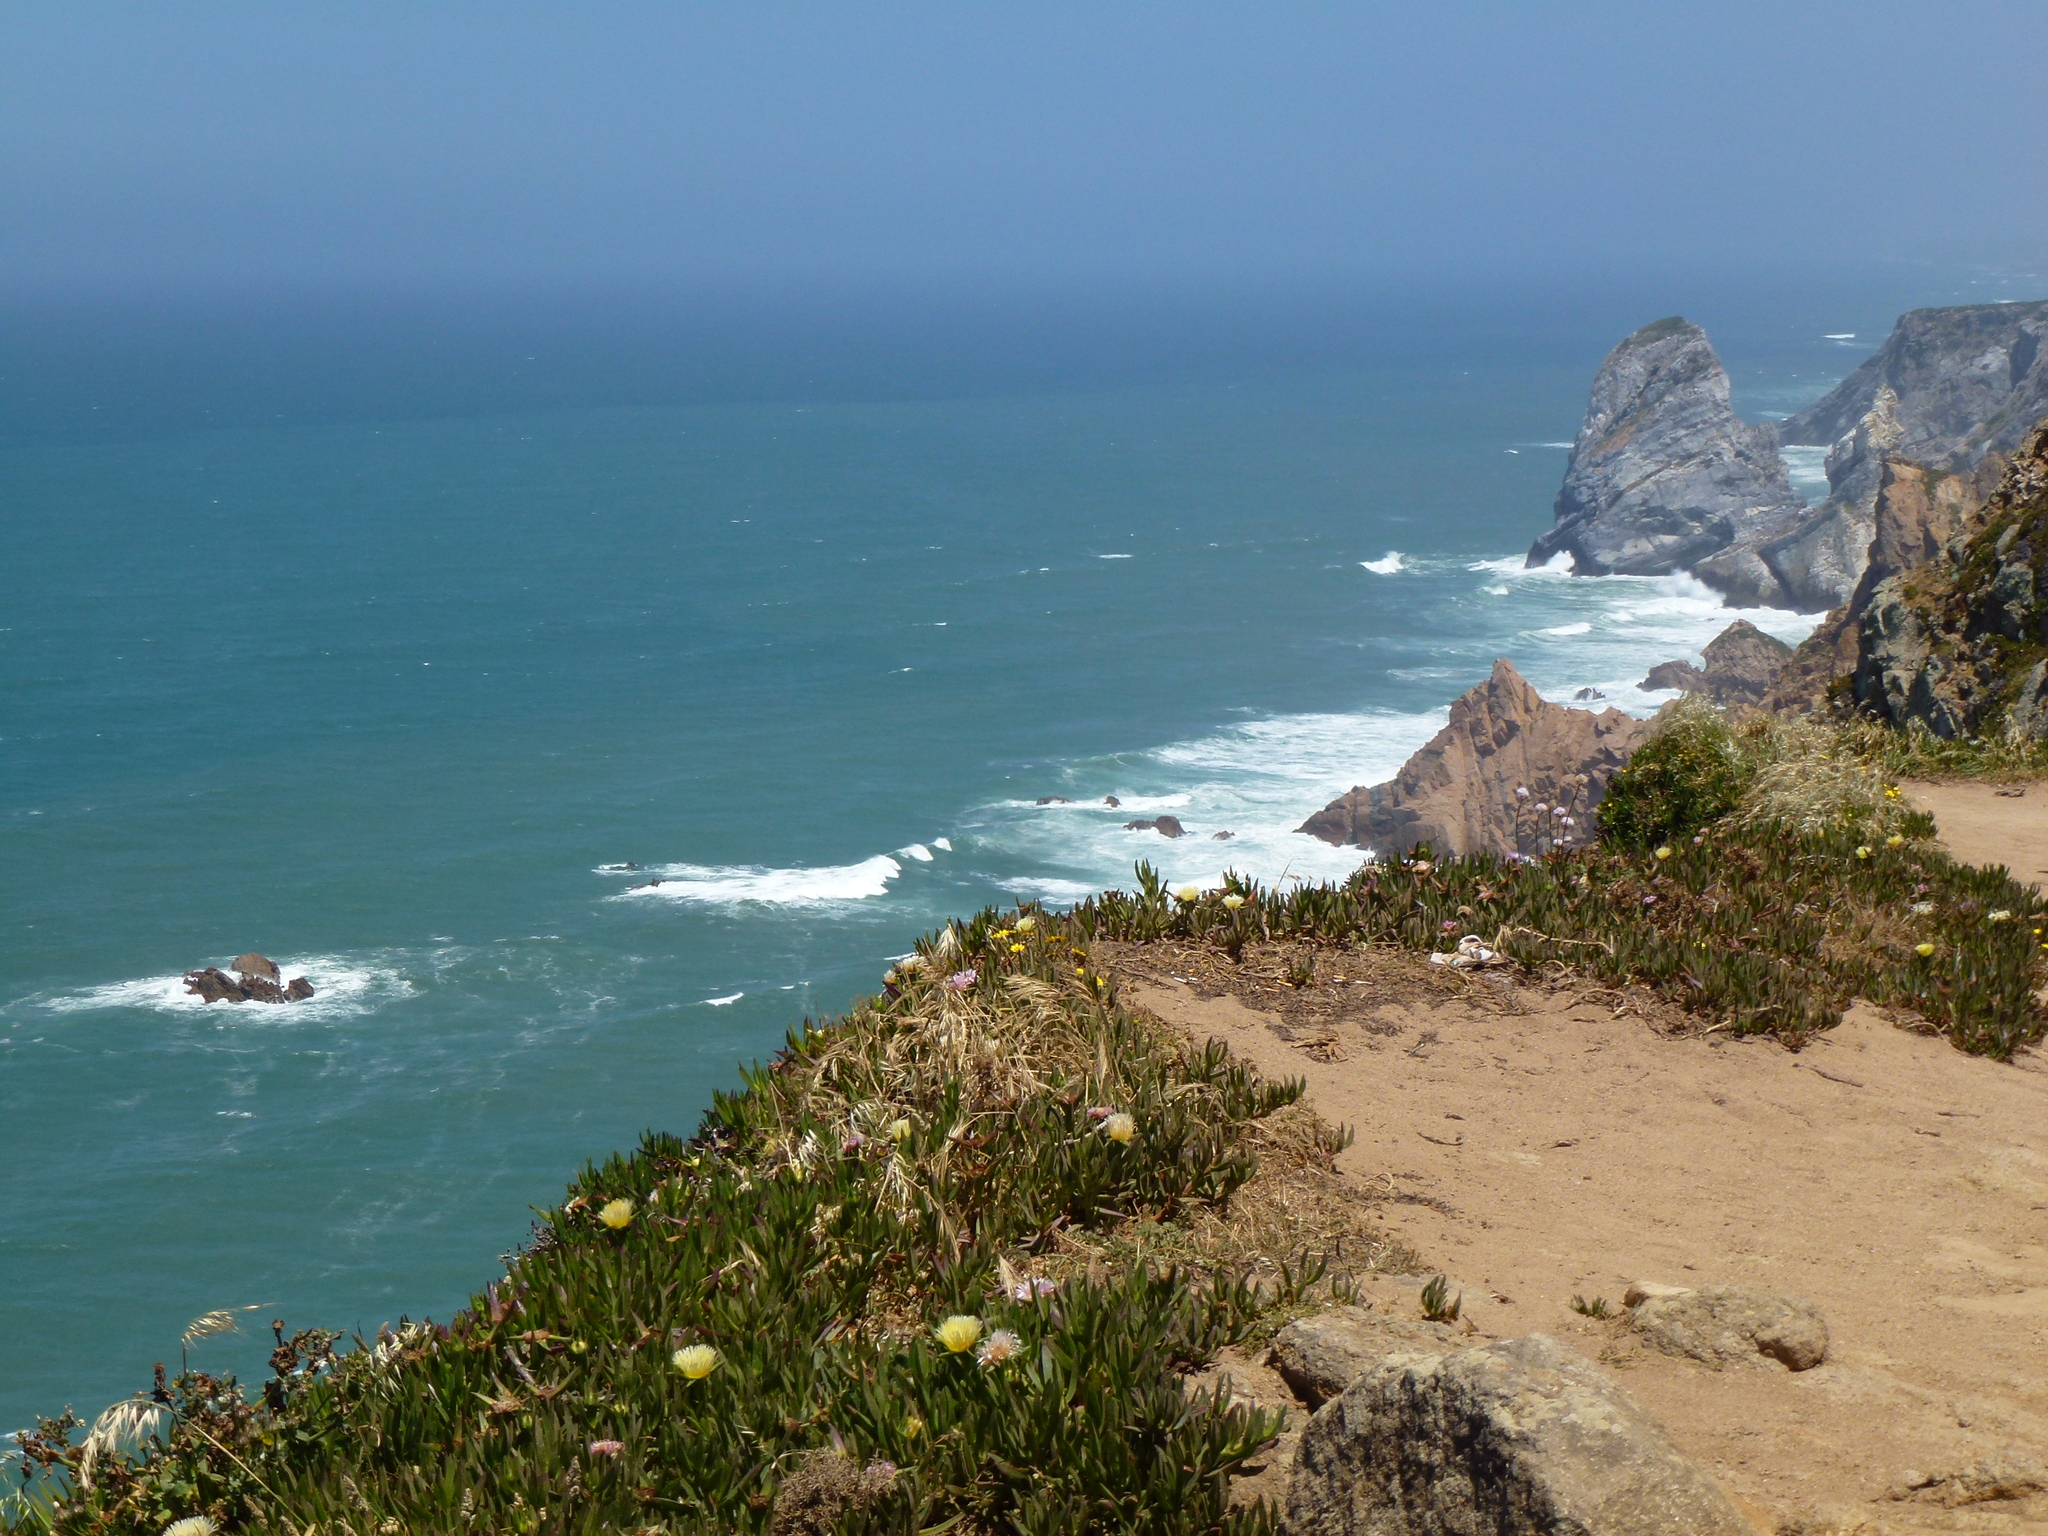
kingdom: Plantae
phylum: Tracheophyta
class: Magnoliopsida
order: Caryophyllales
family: Aizoaceae
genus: Carpobrotus
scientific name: Carpobrotus edulis
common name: Hottentot-fig
